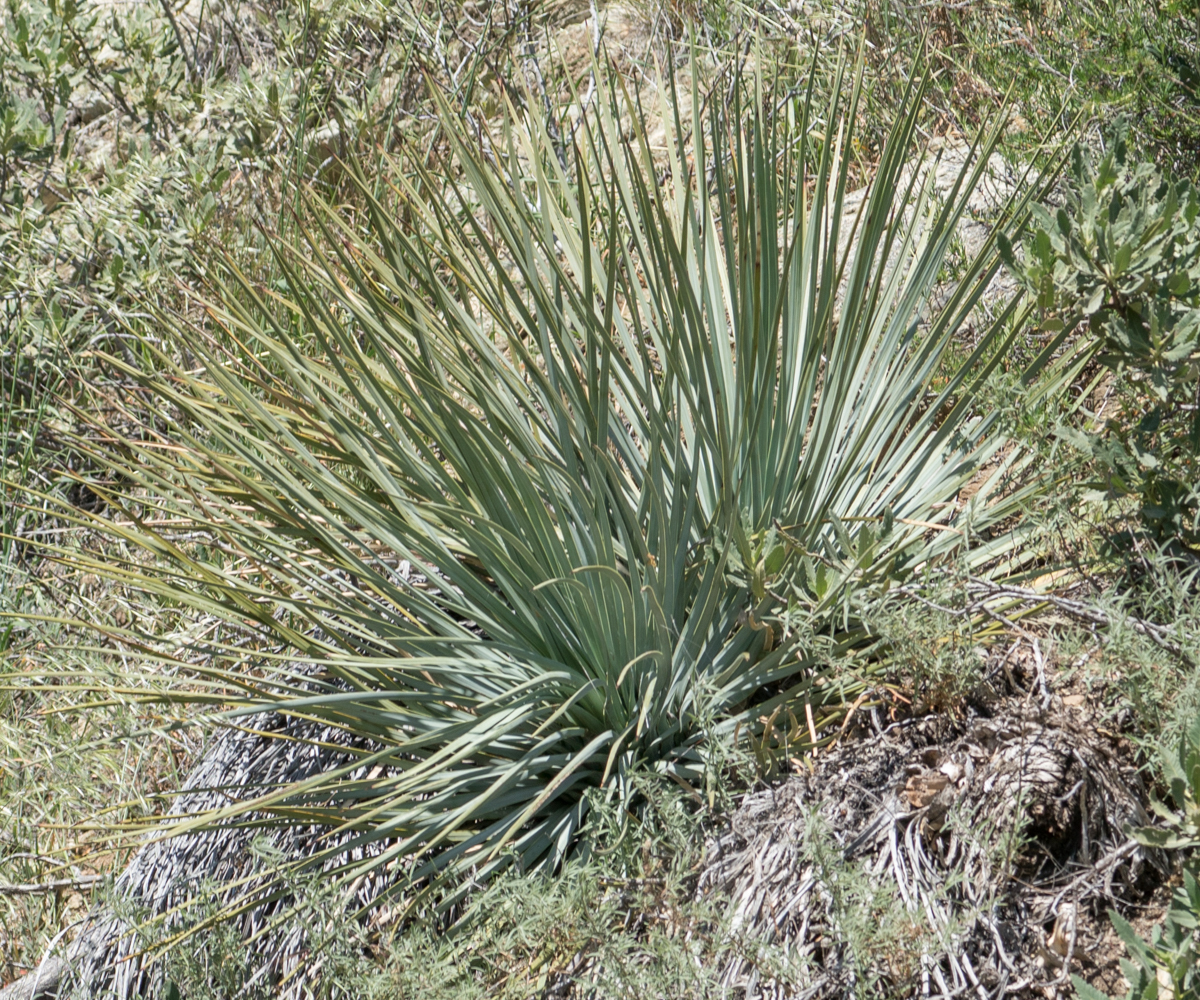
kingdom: Plantae
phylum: Tracheophyta
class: Liliopsida
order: Asparagales
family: Asparagaceae
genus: Hesperoyucca
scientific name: Hesperoyucca whipplei
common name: Our lord's-candle
